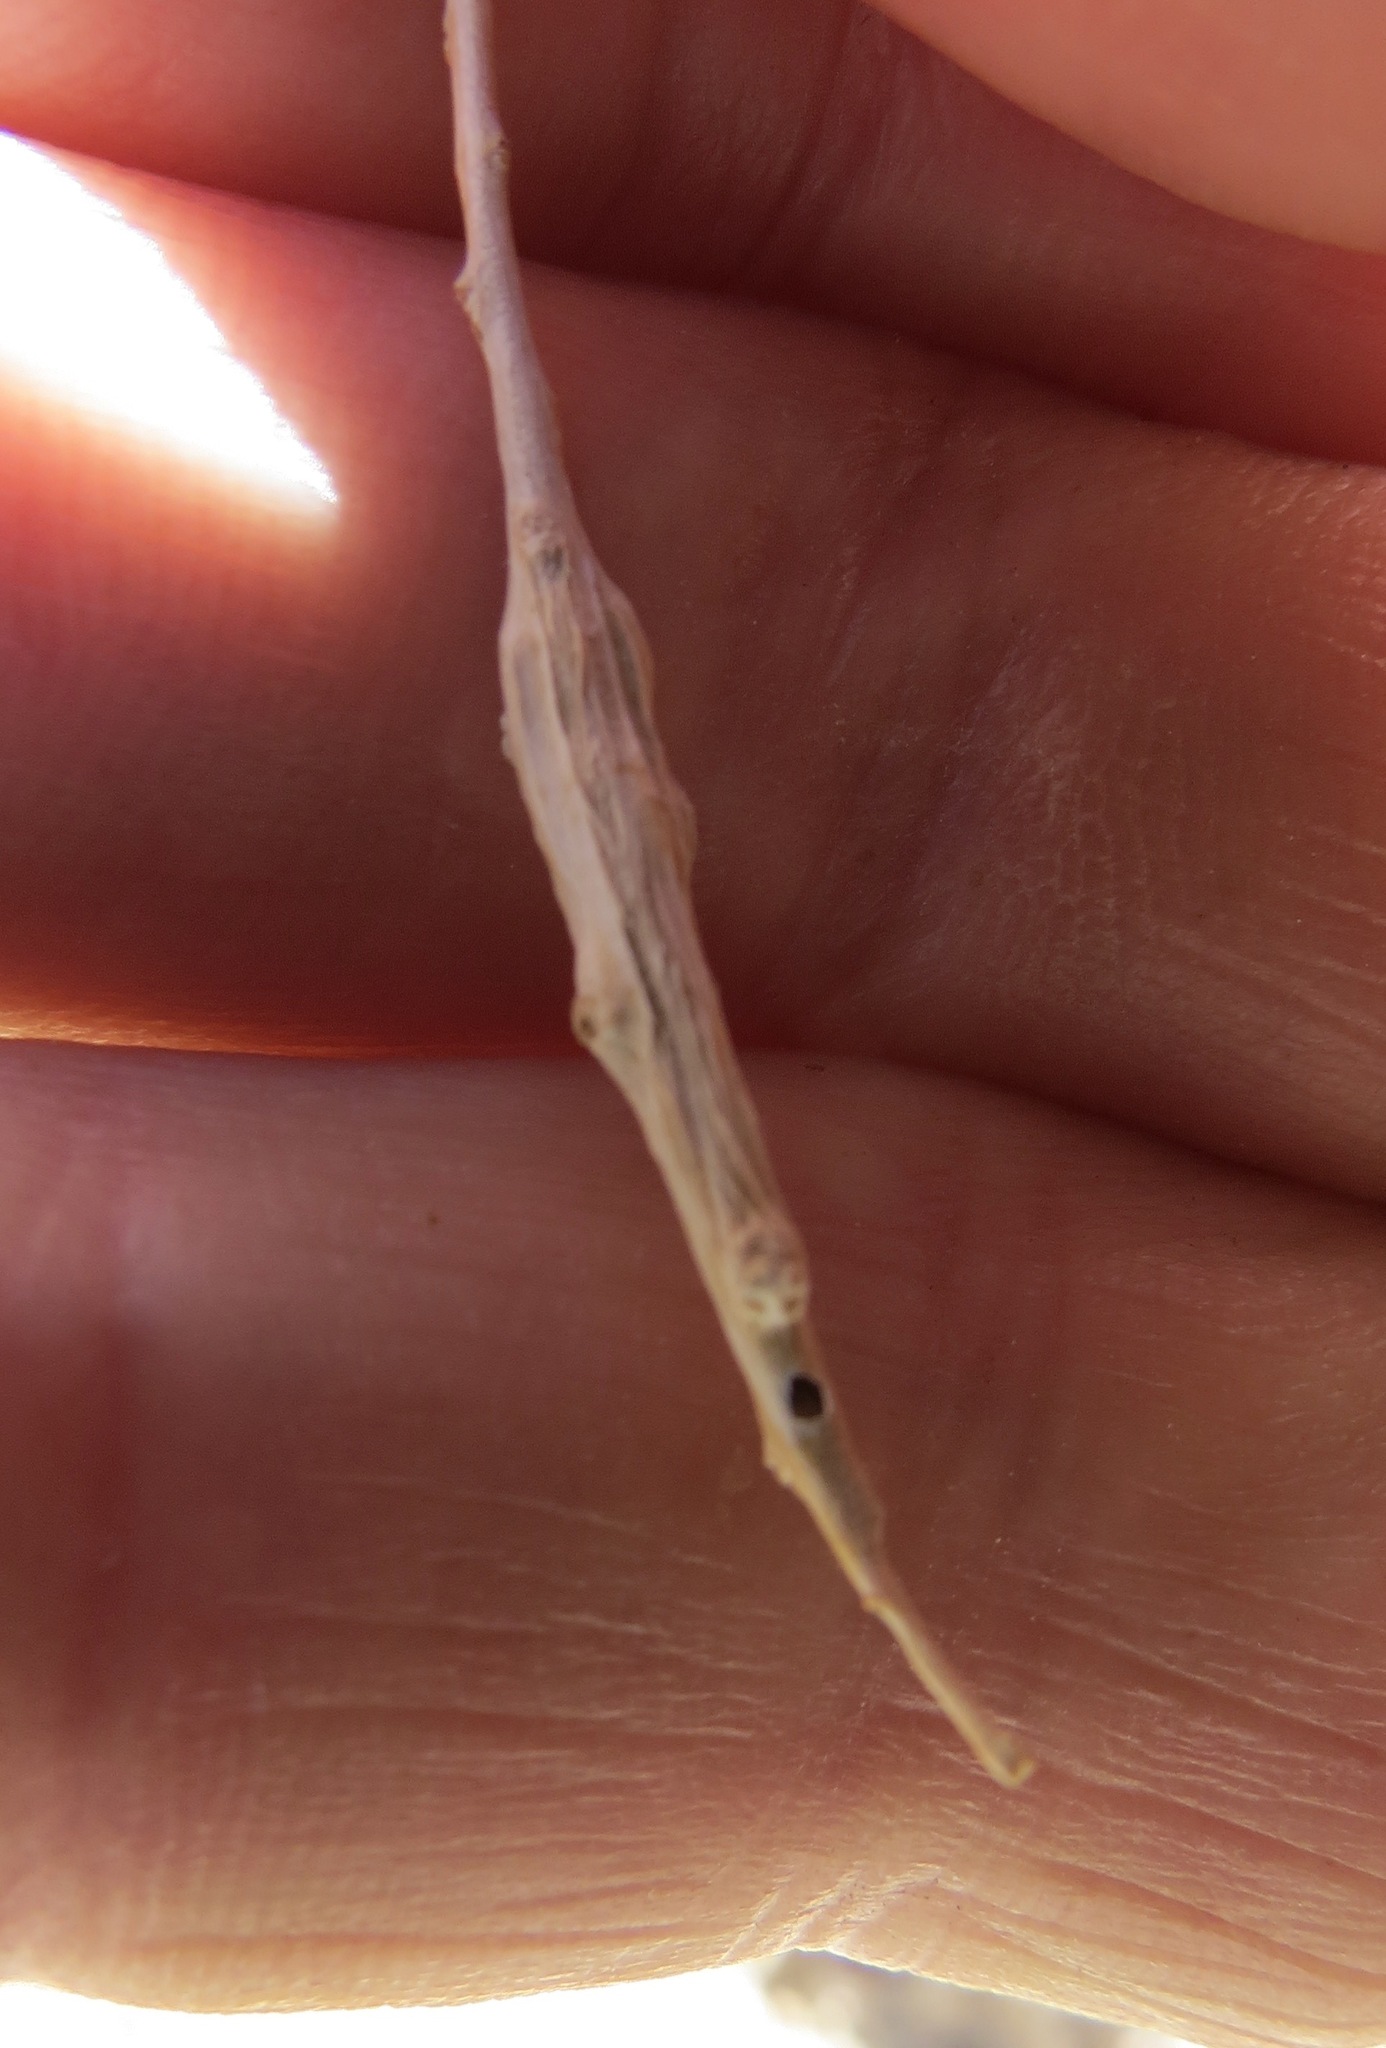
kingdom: Animalia
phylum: Arthropoda
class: Insecta
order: Diptera
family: Cecidomyiidae
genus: Neolasioptera
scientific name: Neolasioptera willistoni
